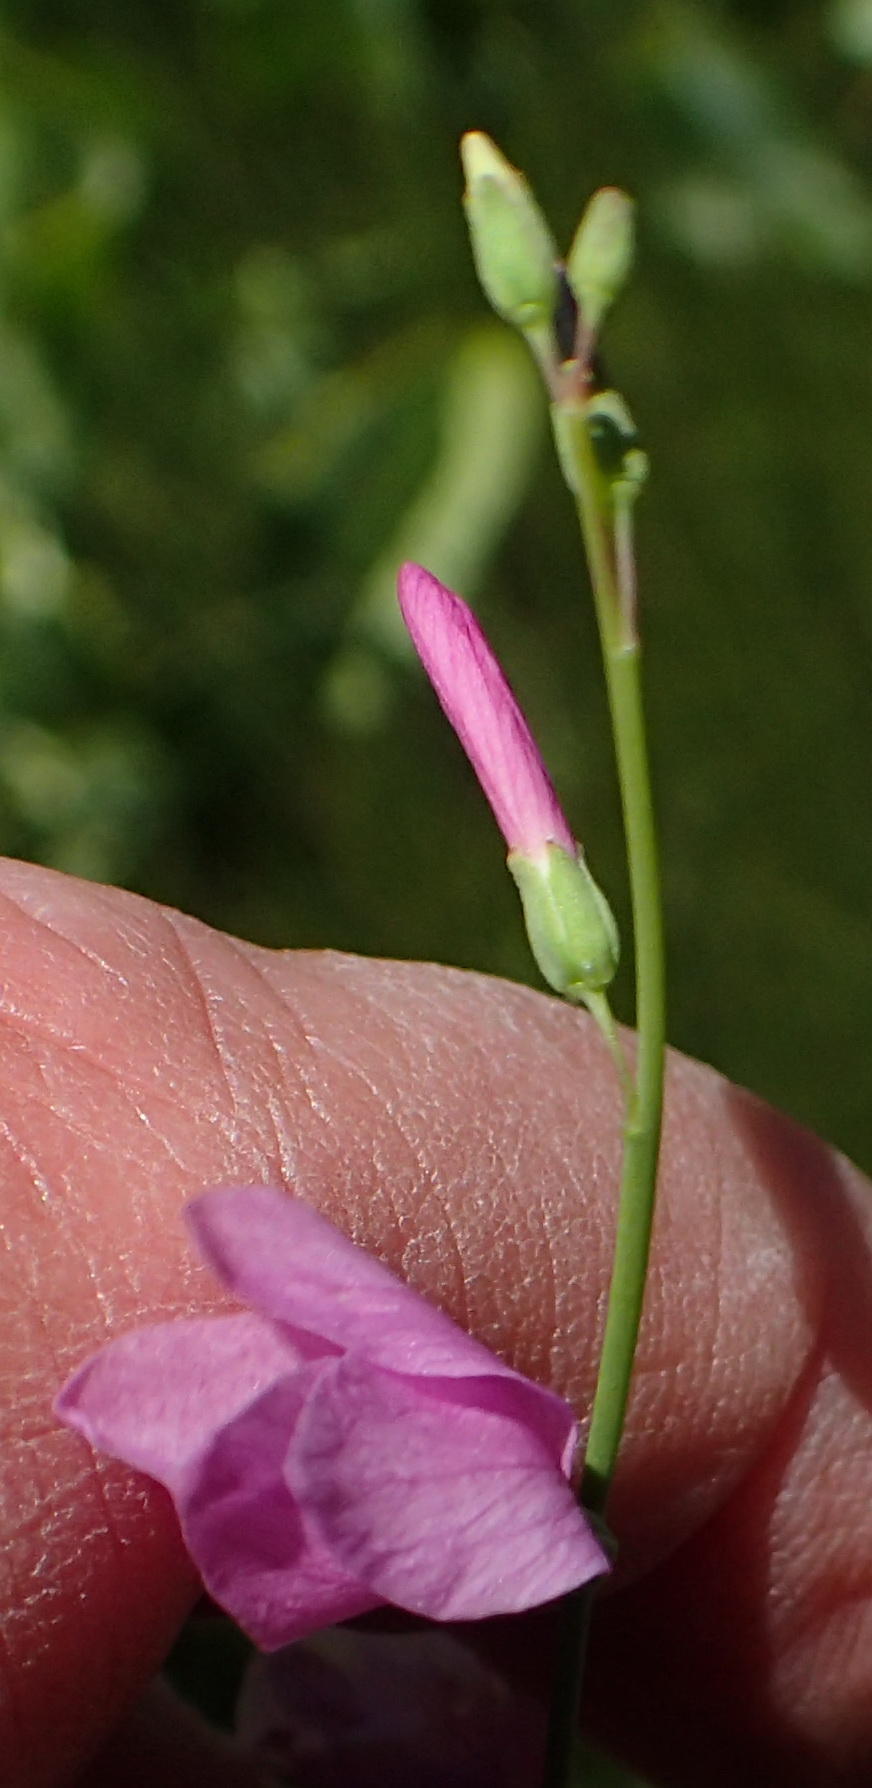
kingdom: Plantae
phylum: Tracheophyta
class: Magnoliopsida
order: Brassicales
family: Brassicaceae
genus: Heliophila
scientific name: Heliophila juncea
